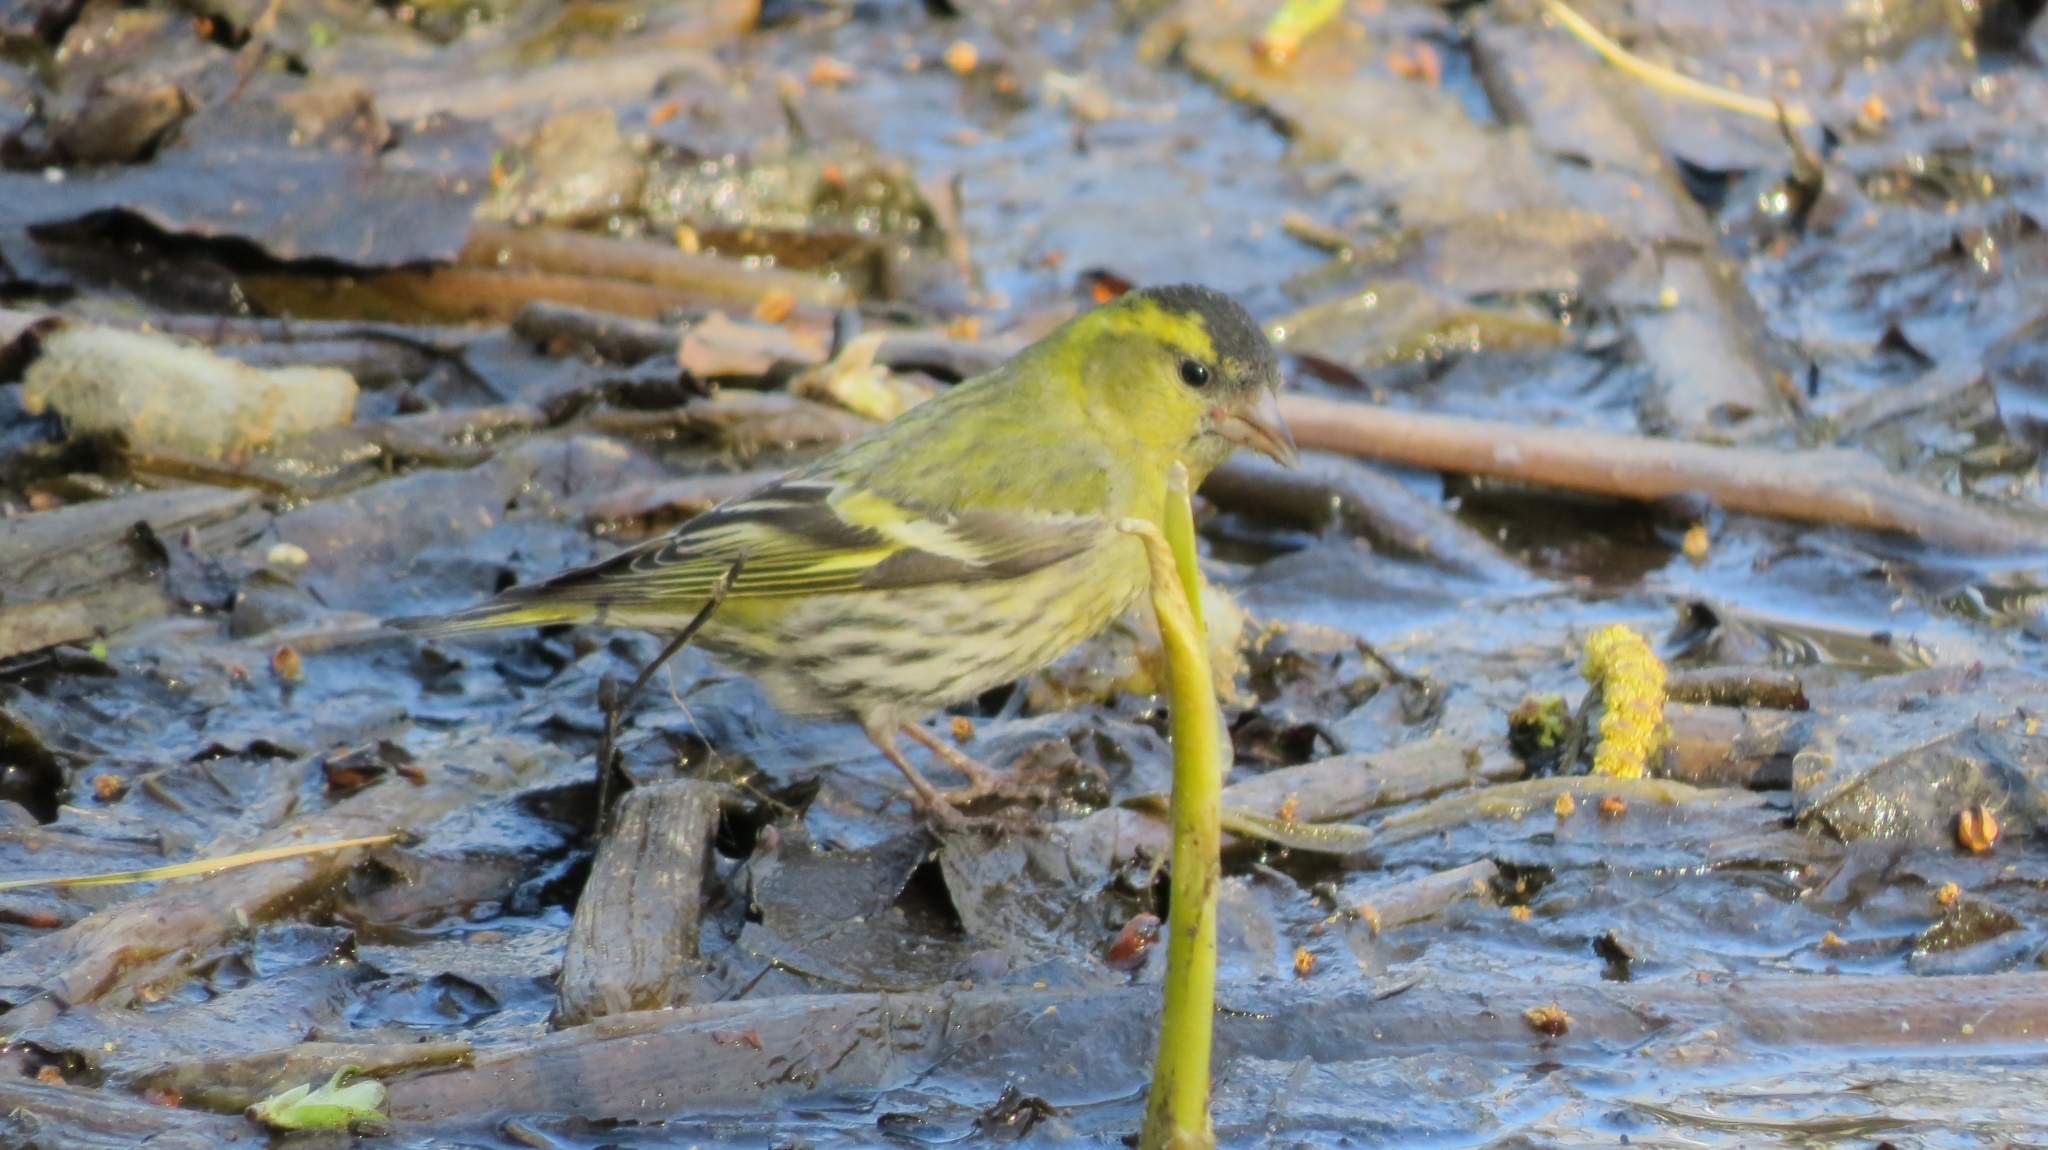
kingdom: Animalia
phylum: Chordata
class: Aves
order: Passeriformes
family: Fringillidae
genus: Spinus
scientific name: Spinus spinus
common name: Eurasian siskin
